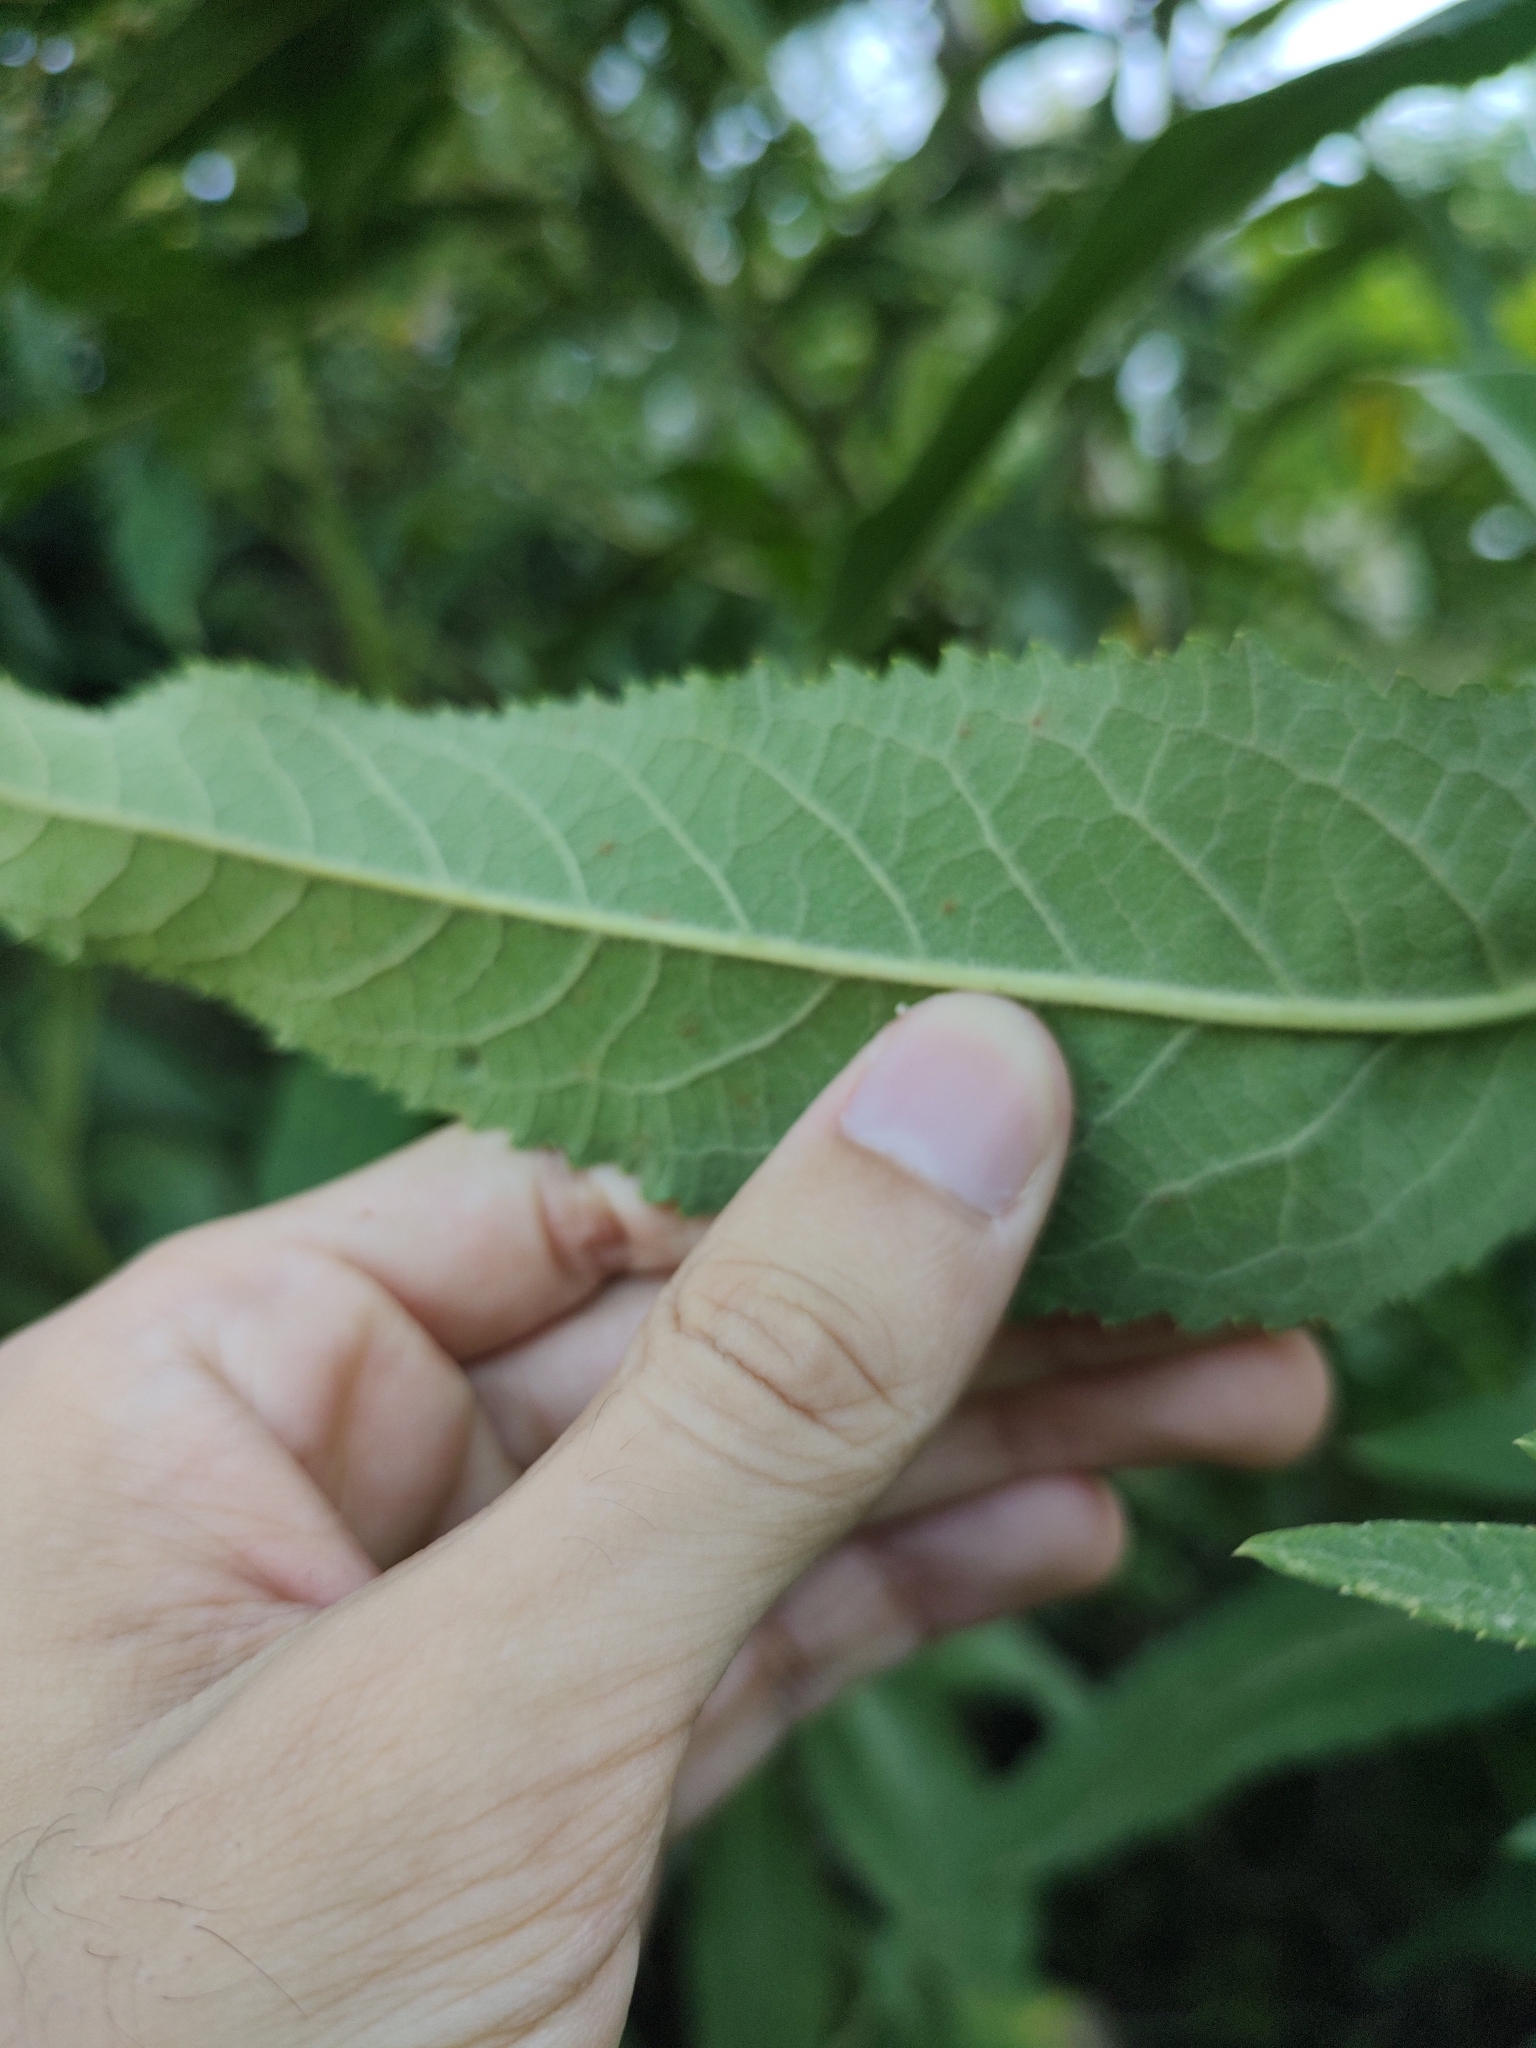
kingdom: Plantae
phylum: Tracheophyta
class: Magnoliopsida
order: Asterales
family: Asteraceae
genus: Vernonanthura
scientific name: Vernonanthura tweedieana
